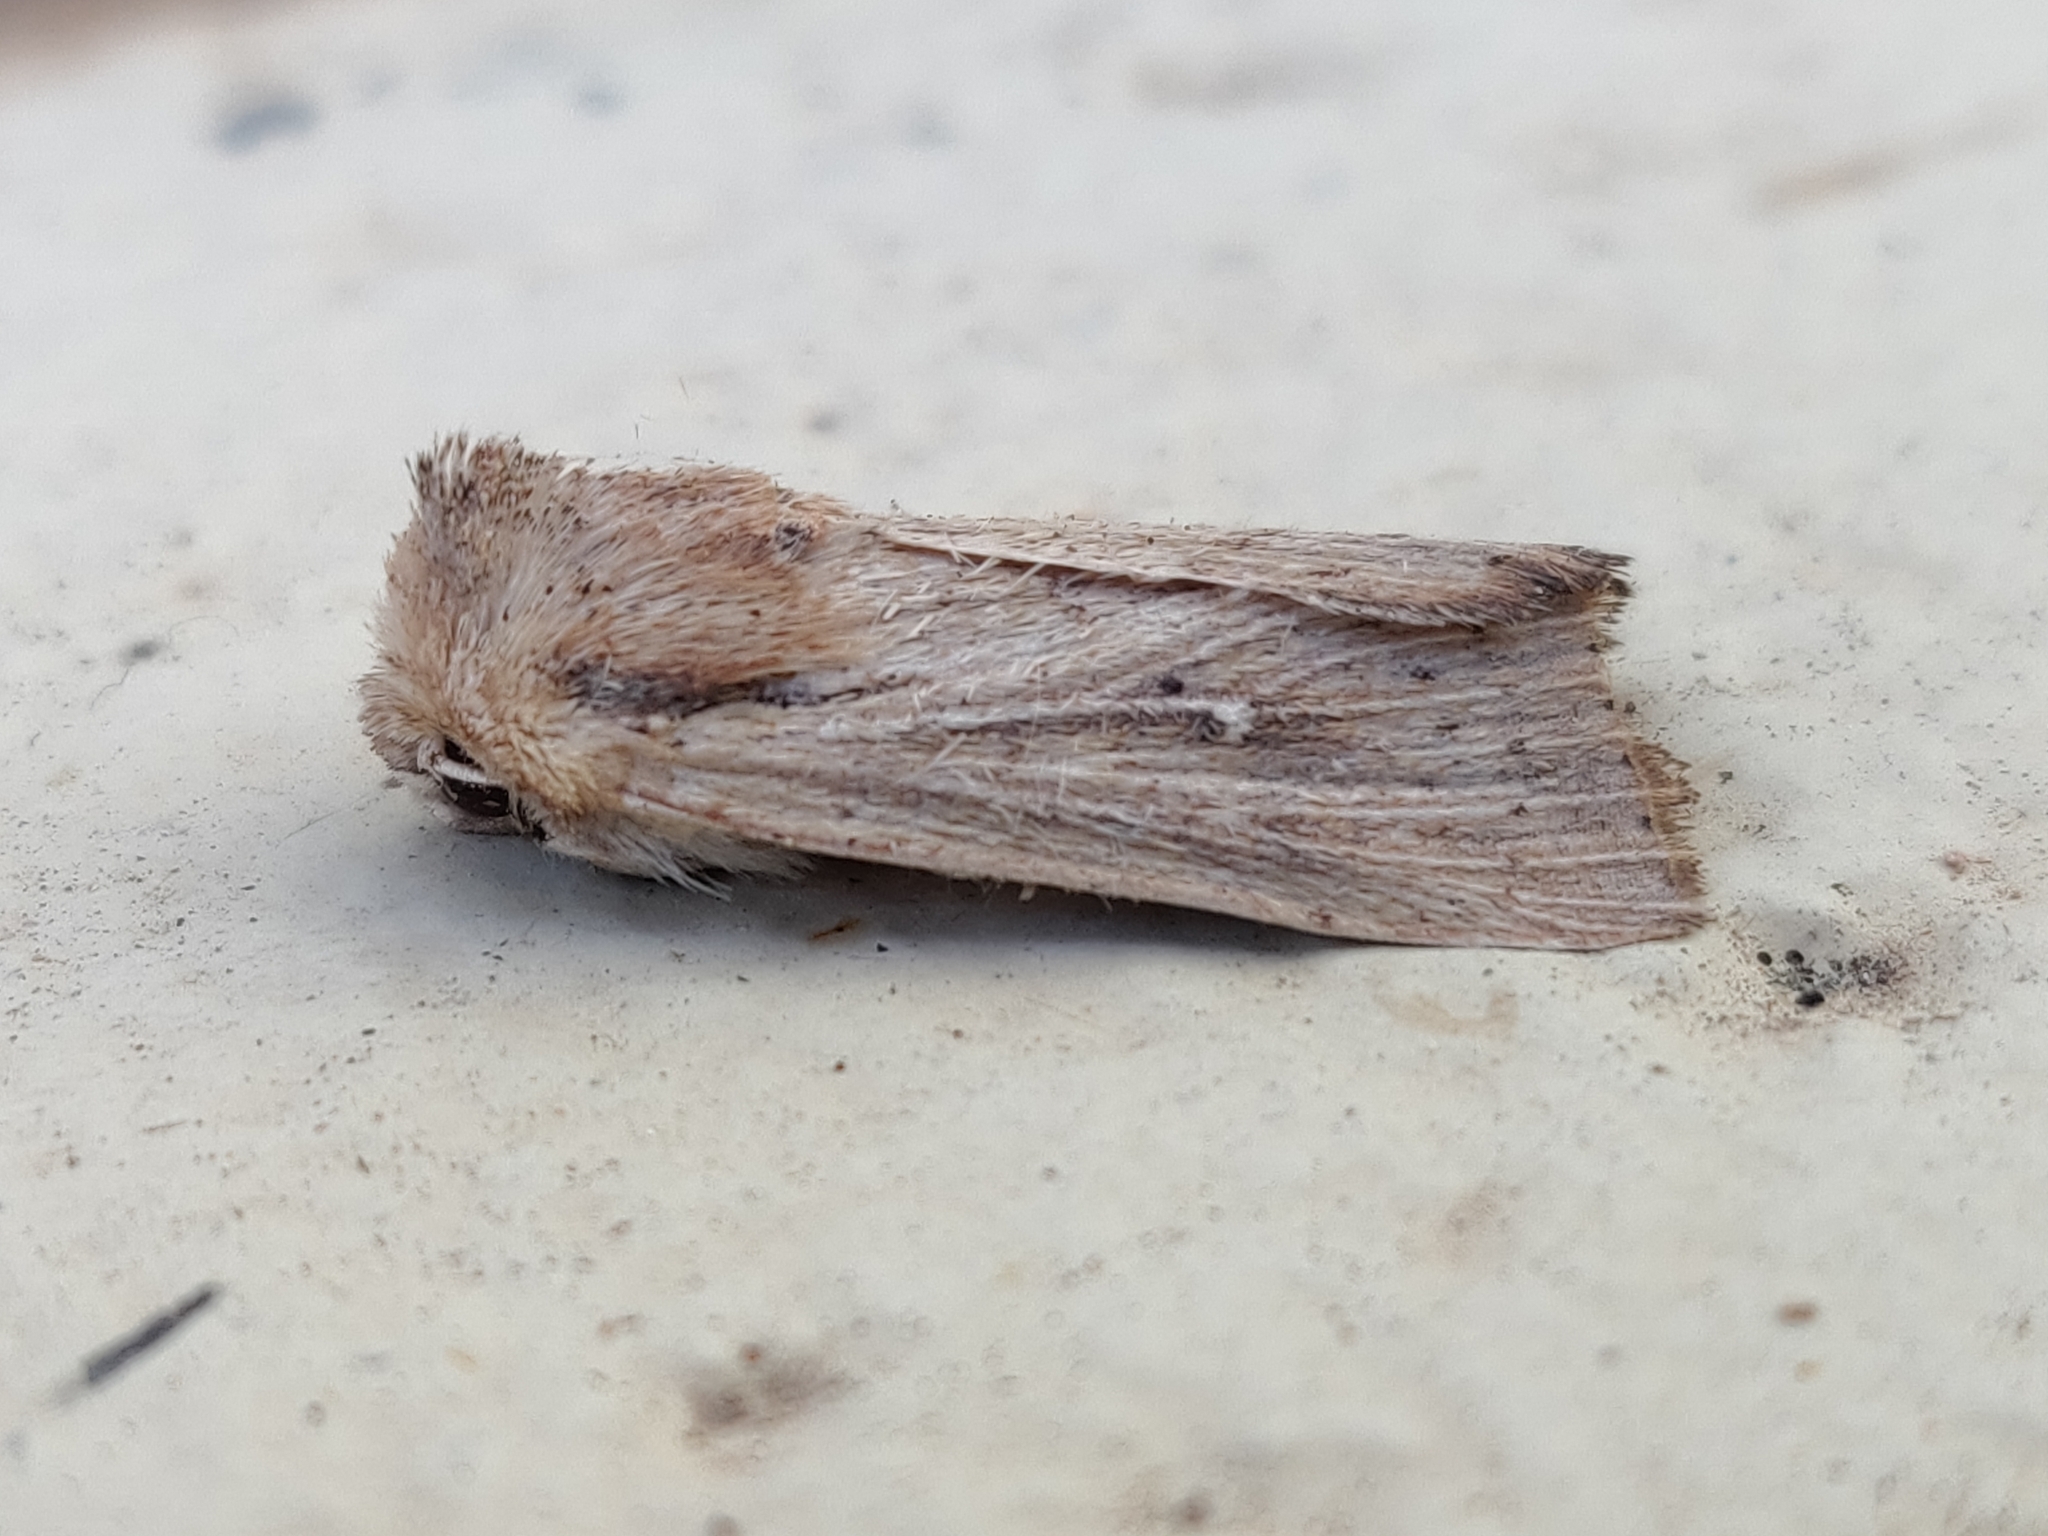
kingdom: Animalia
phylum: Arthropoda
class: Insecta
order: Lepidoptera
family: Noctuidae
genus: Leucania
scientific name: Leucania uda
